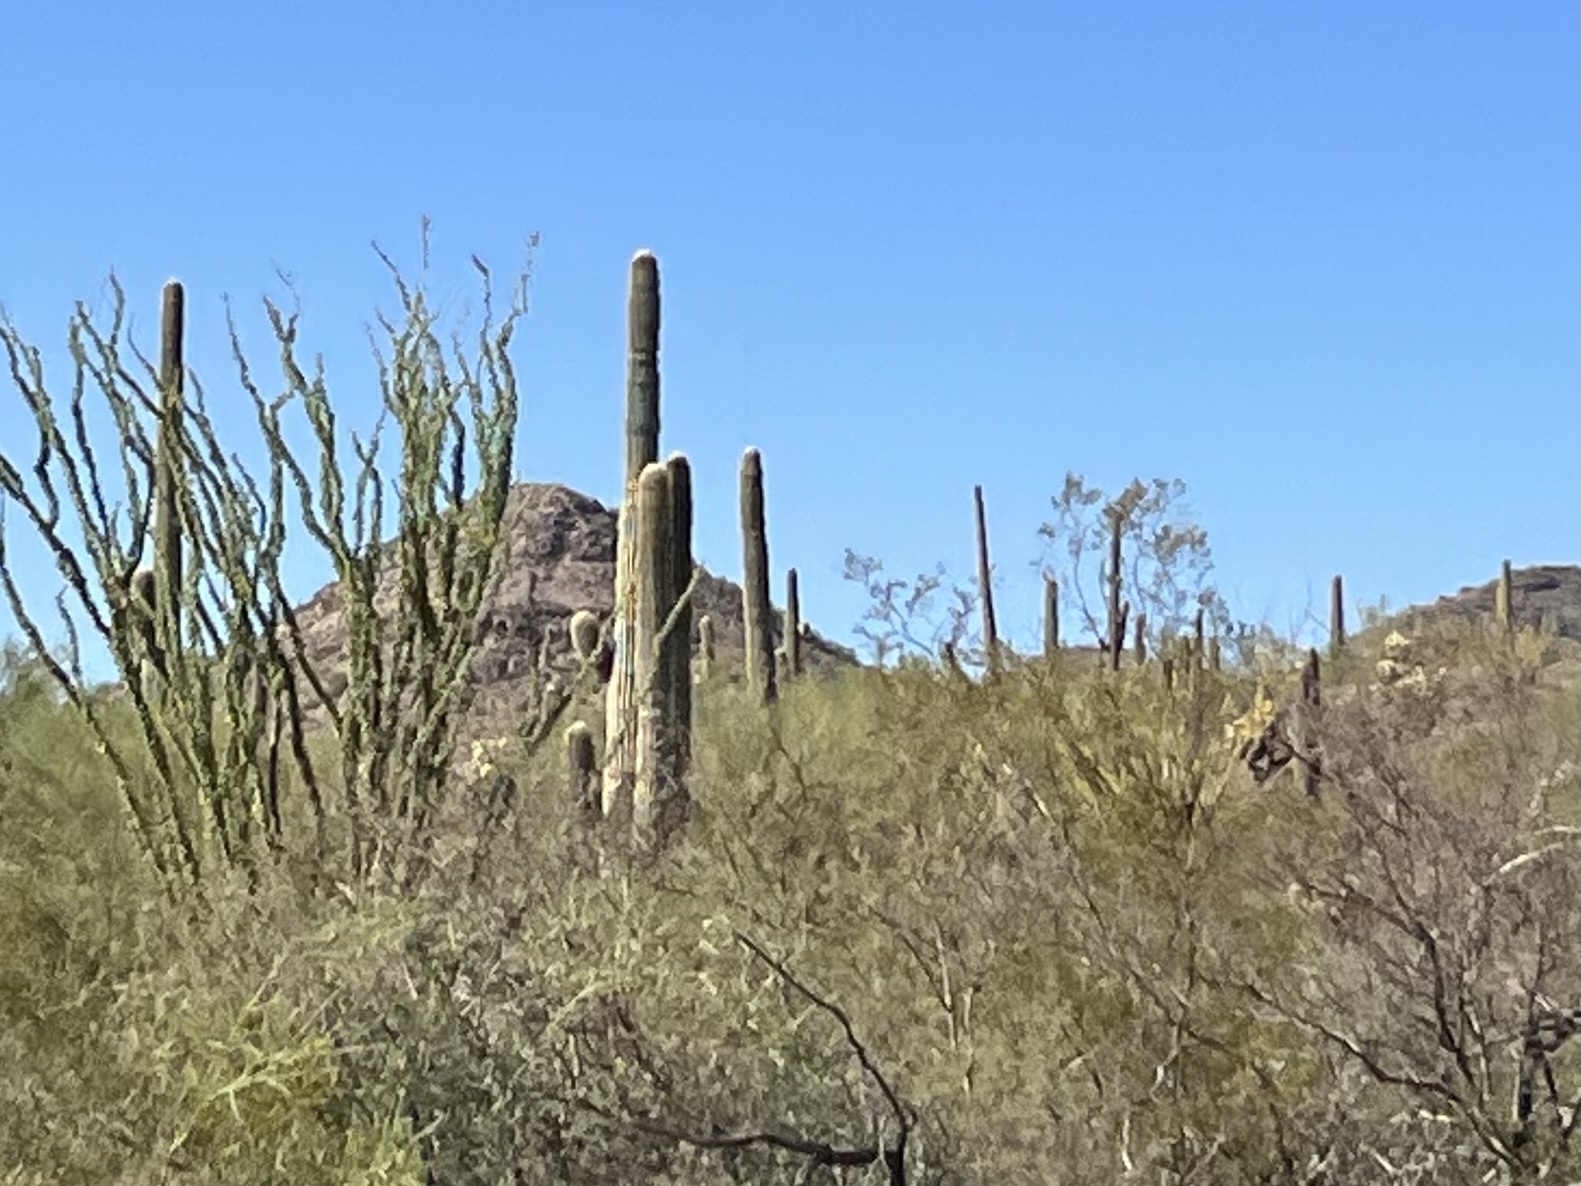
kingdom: Plantae
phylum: Tracheophyta
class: Magnoliopsida
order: Caryophyllales
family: Cactaceae
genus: Carnegiea
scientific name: Carnegiea gigantea
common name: Saguaro
